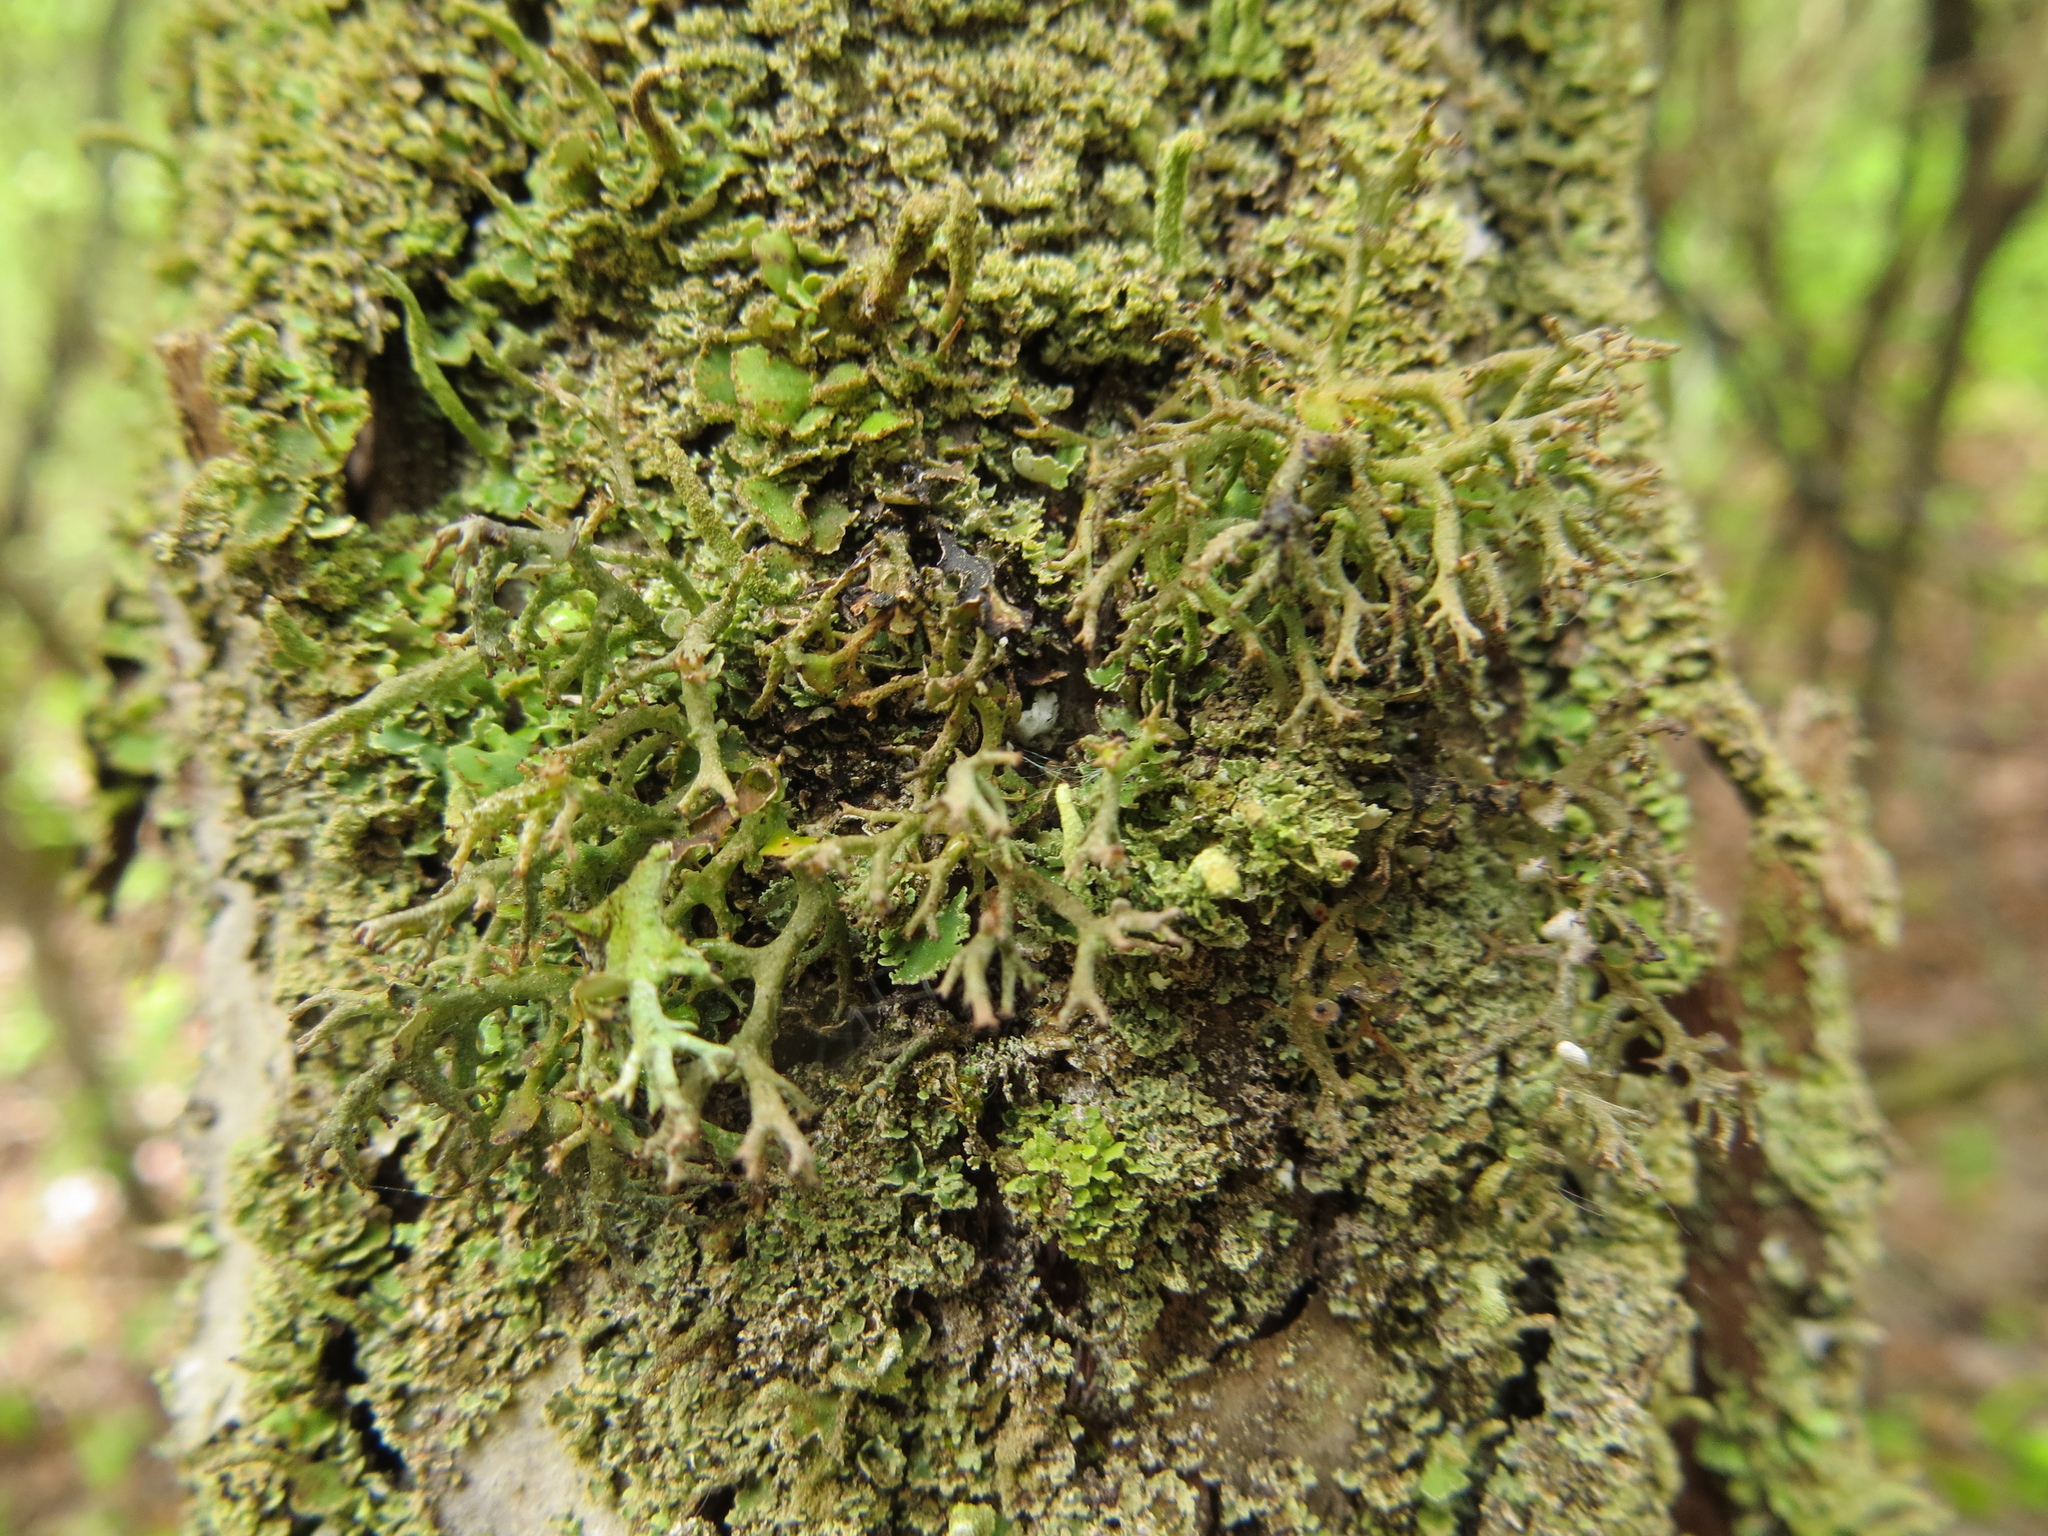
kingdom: Fungi
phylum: Ascomycota
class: Lecanoromycetes
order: Lecanorales
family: Cladoniaceae
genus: Cladonia
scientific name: Cladonia furcata
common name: Many-forked cladonia
